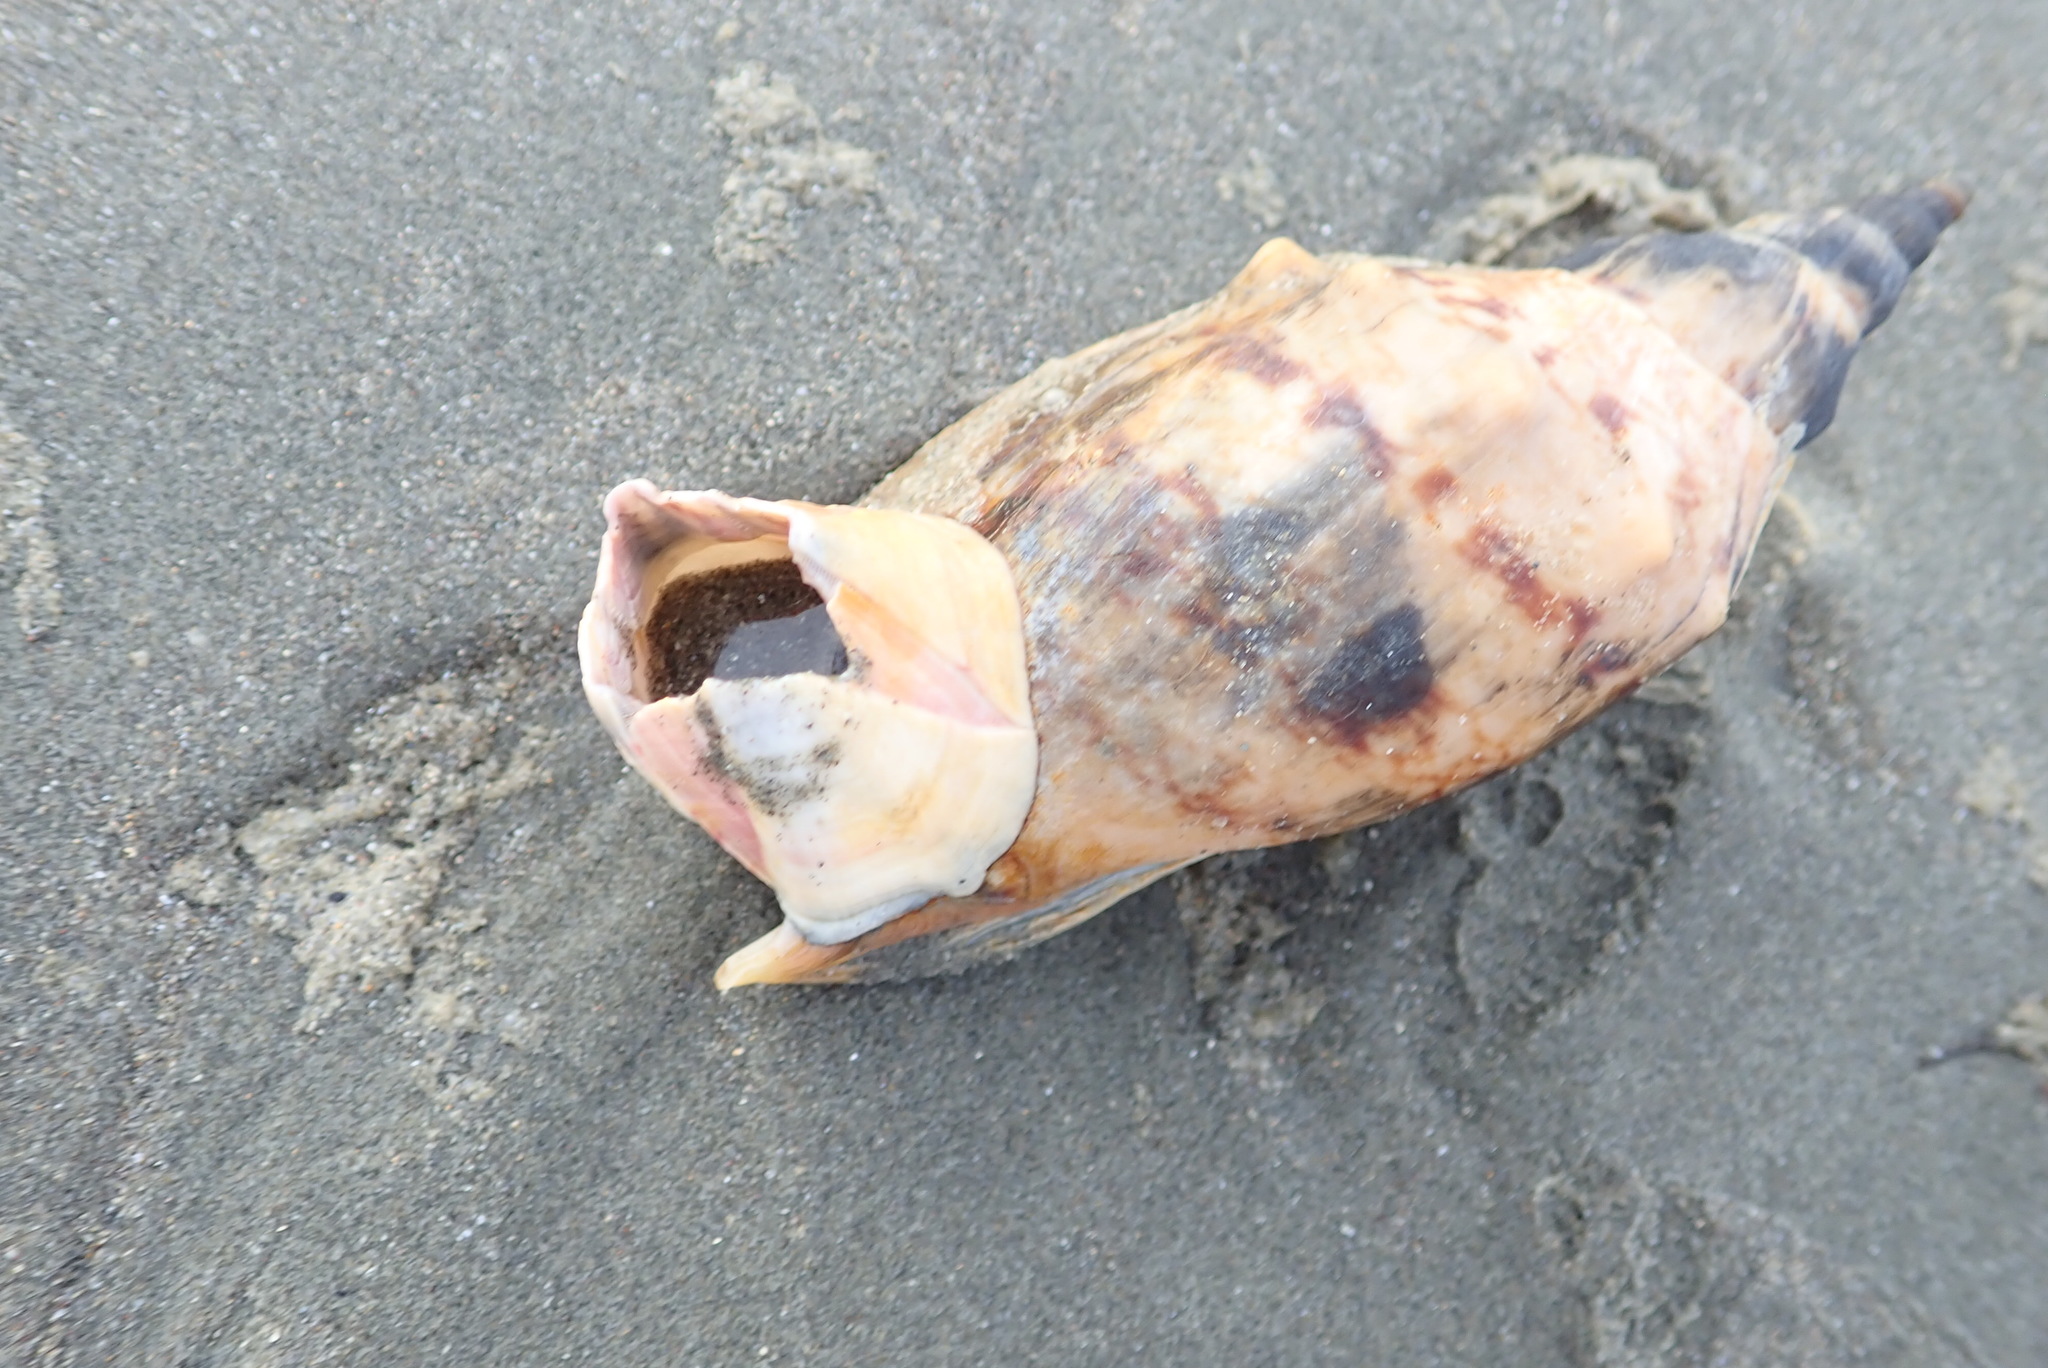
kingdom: Animalia
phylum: Arthropoda
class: Maxillopoda
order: Sessilia
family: Balanidae
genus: Notomegabalanus
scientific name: Notomegabalanus decorus
